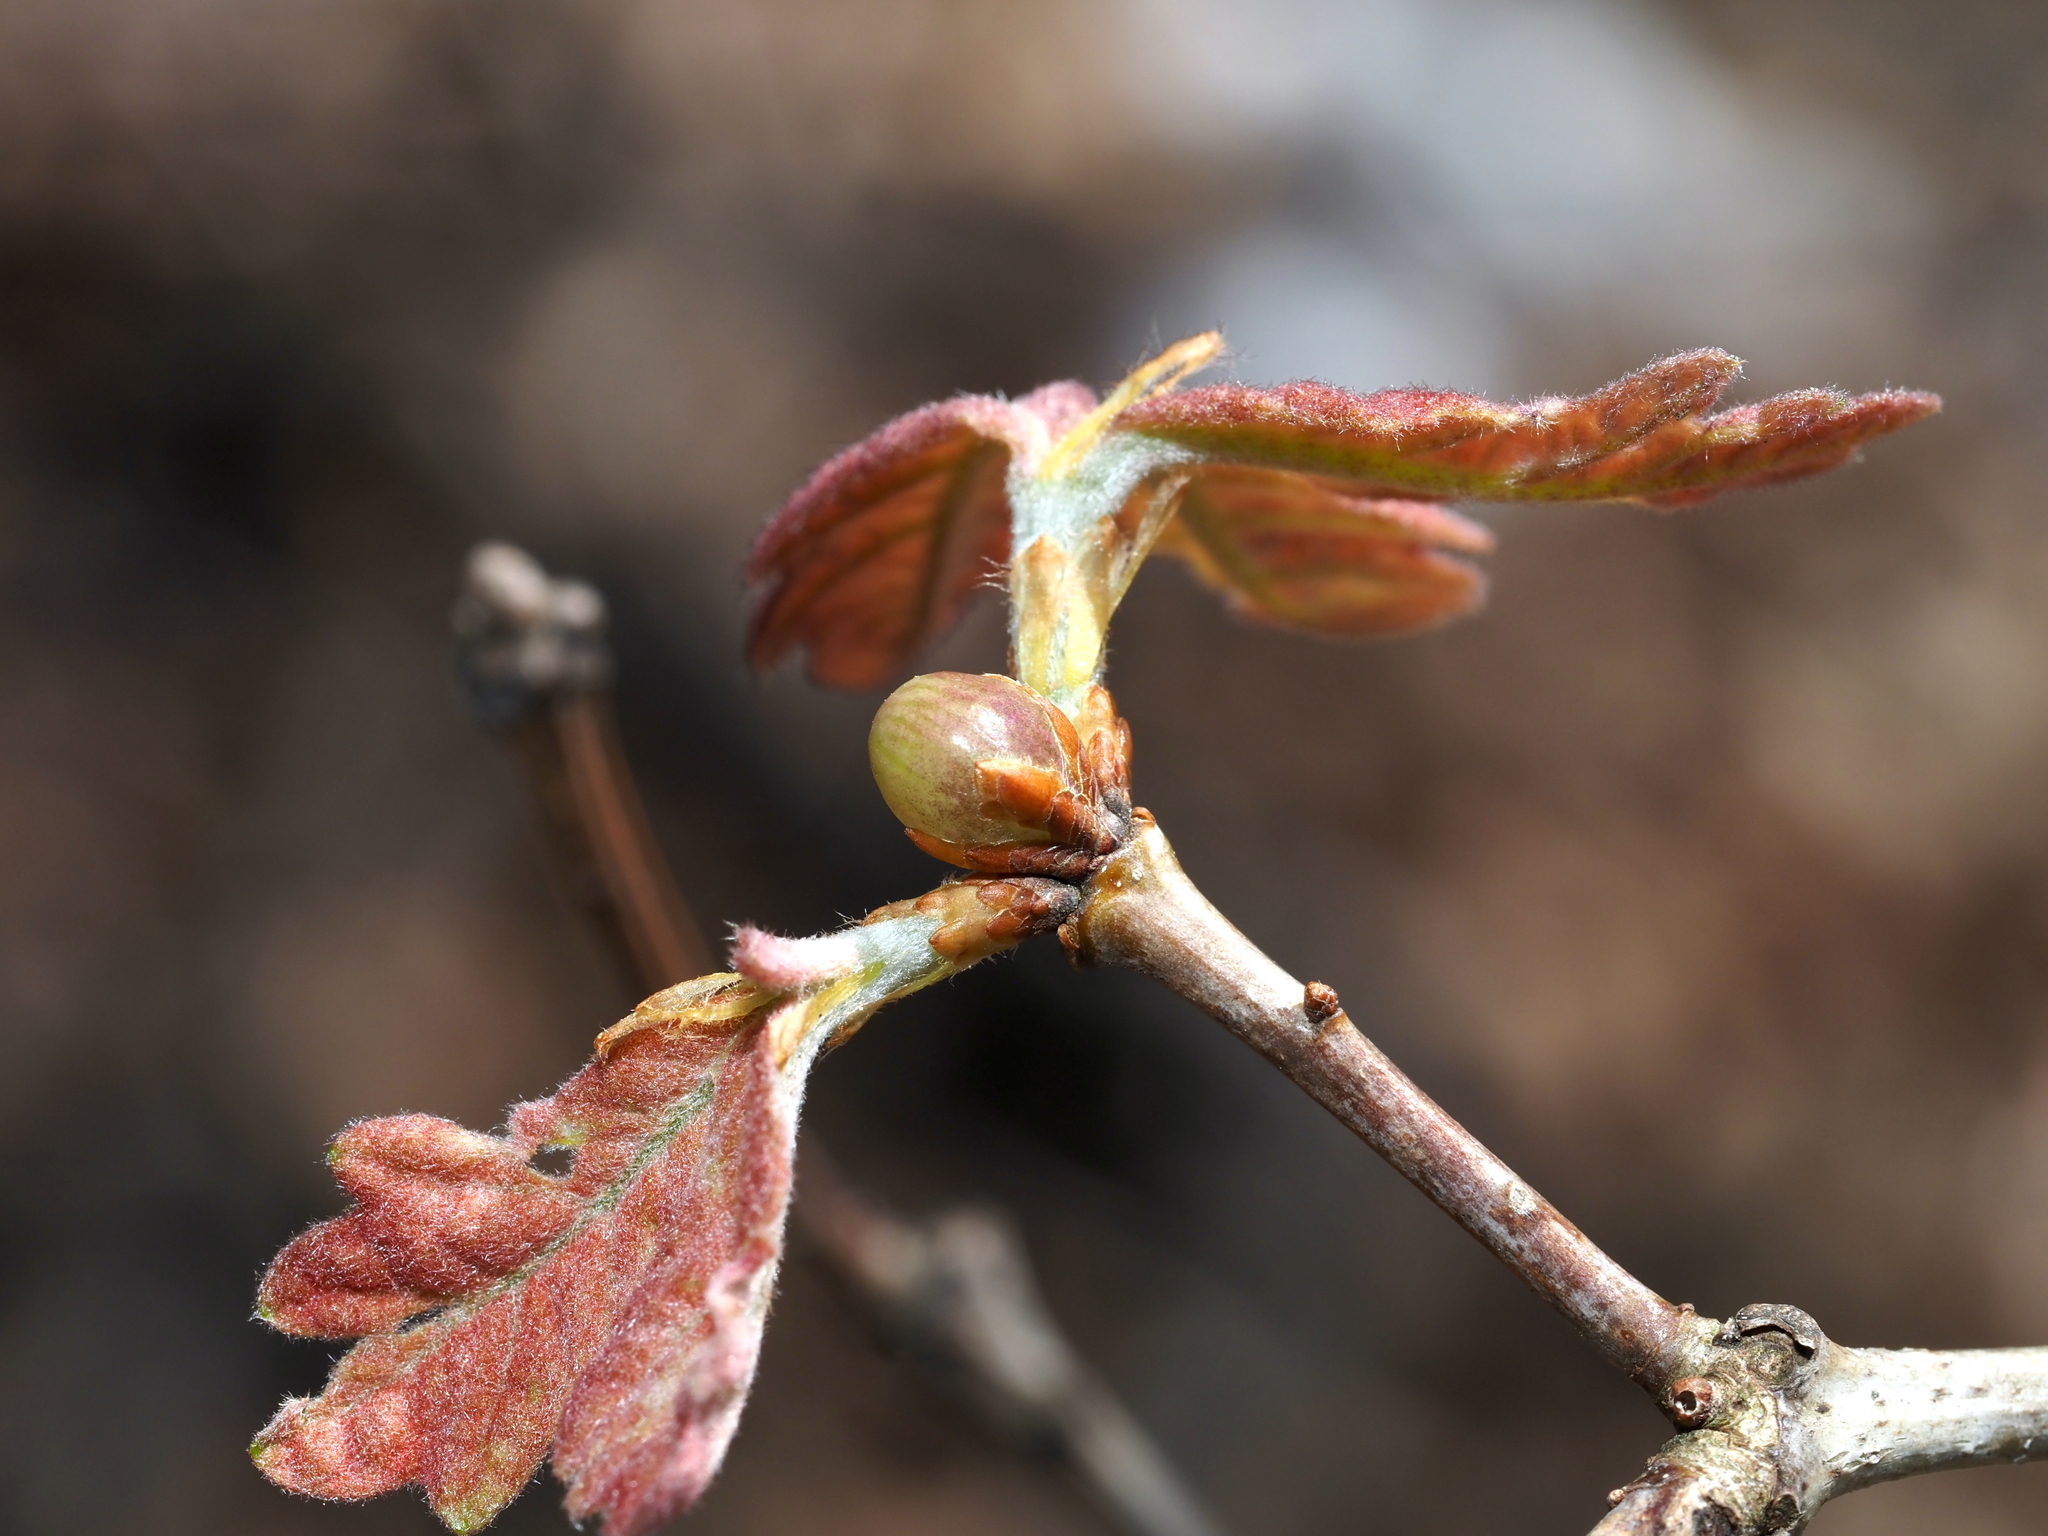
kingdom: Animalia
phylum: Arthropoda
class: Insecta
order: Hymenoptera
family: Cynipidae
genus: Neuroterus
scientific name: Neuroterus
